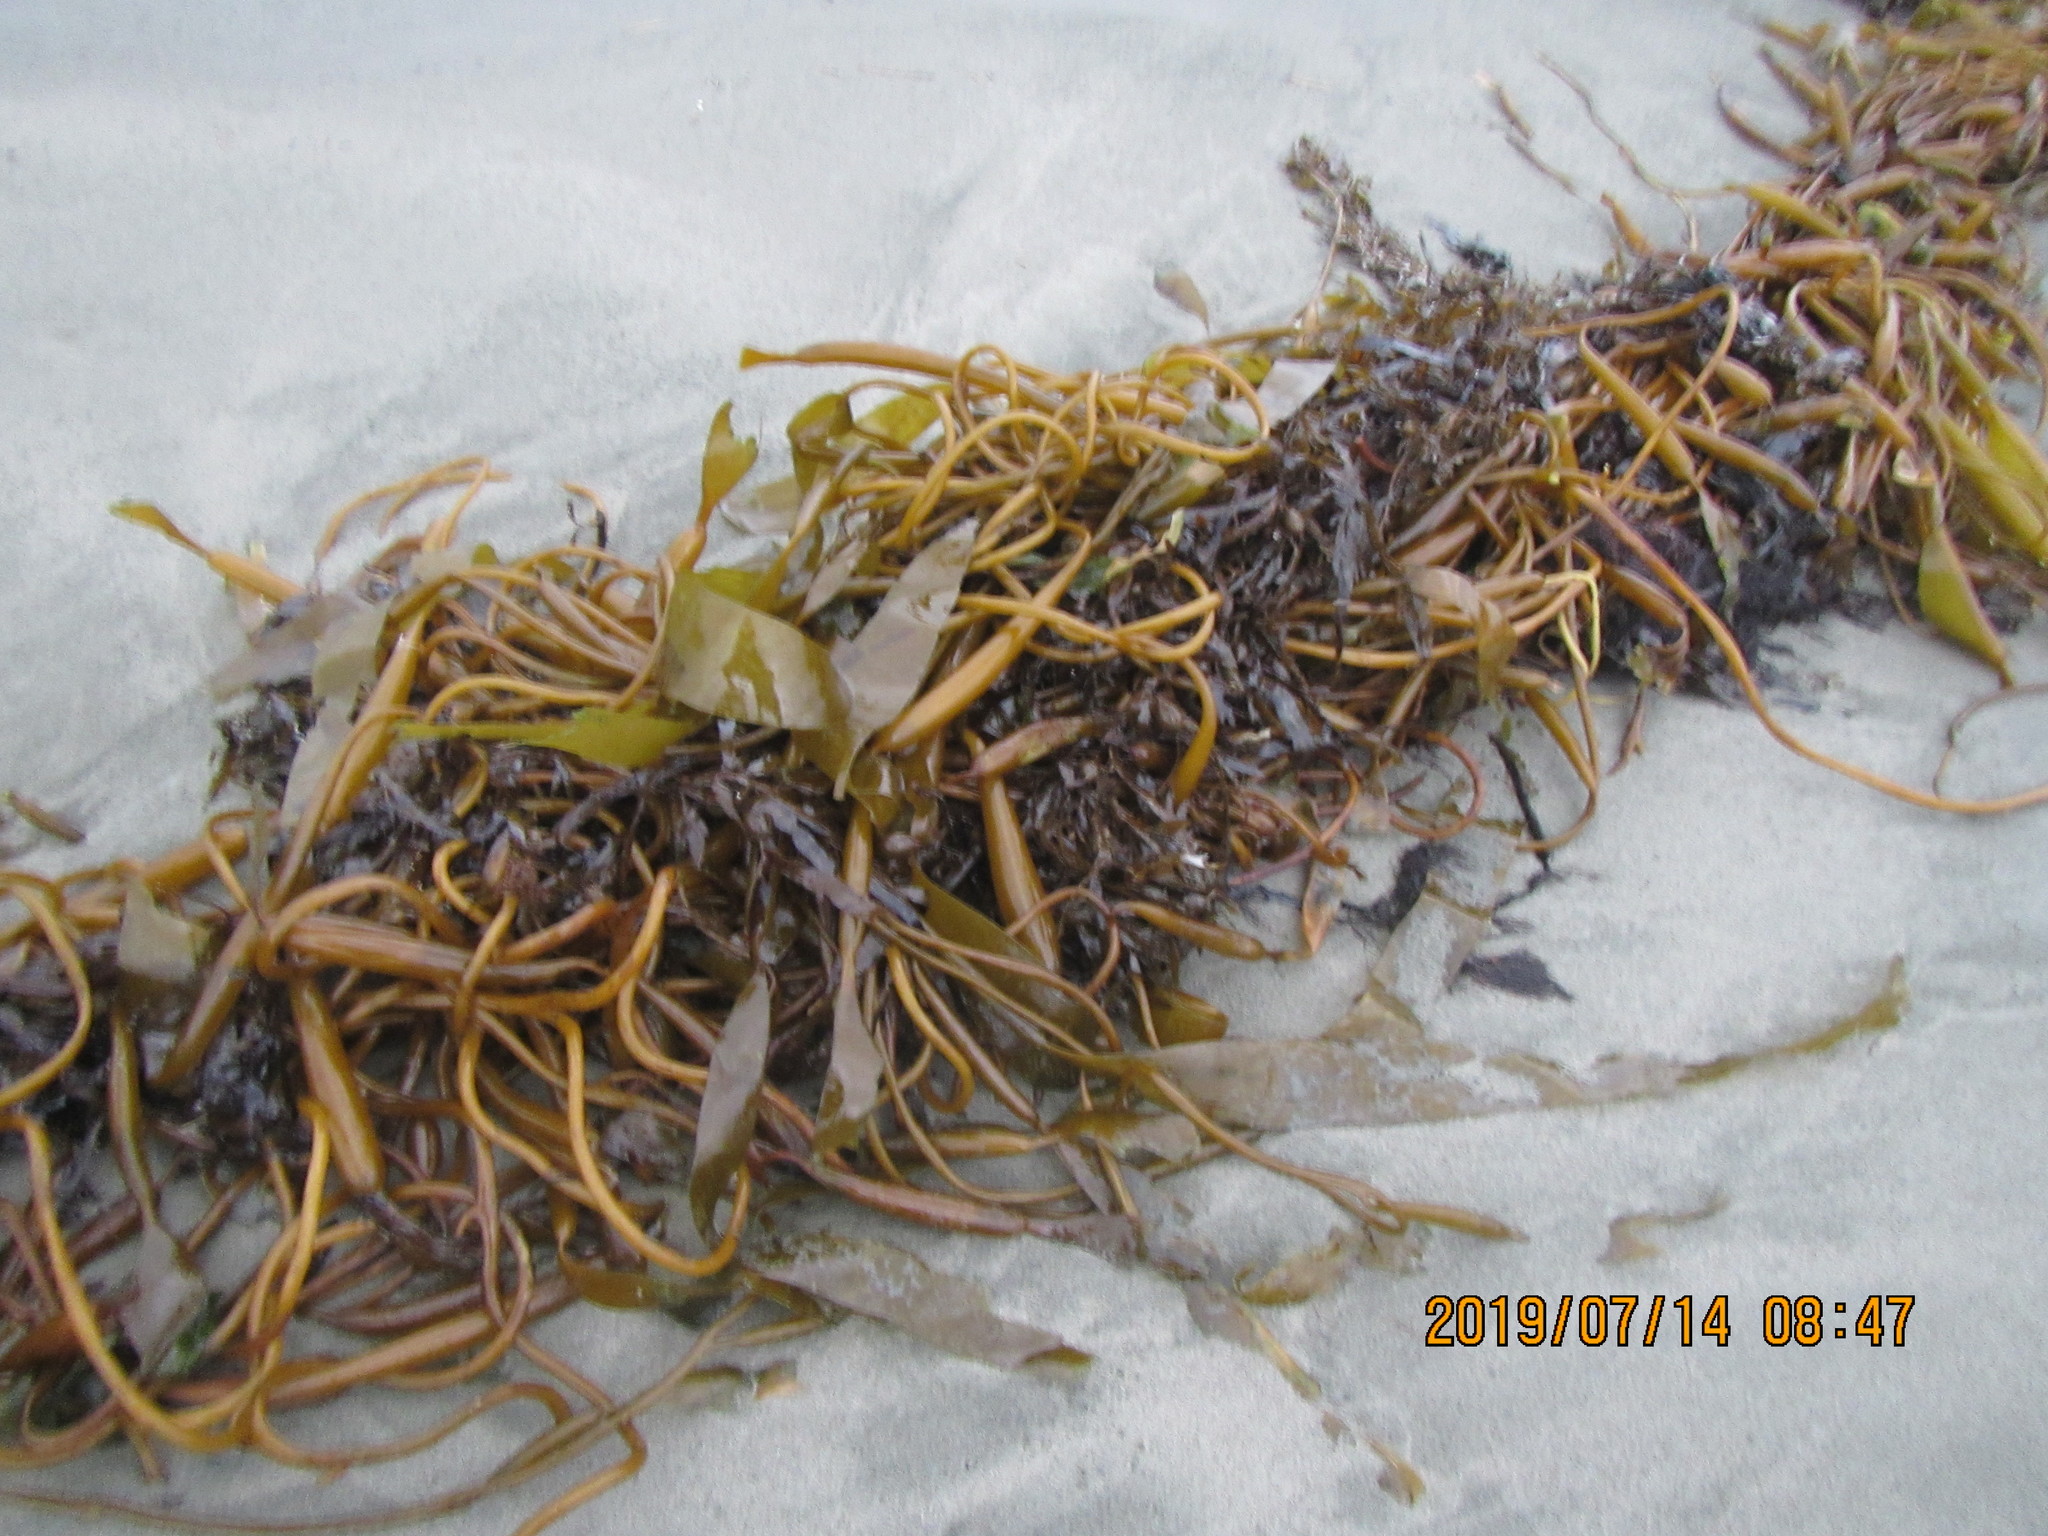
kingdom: Chromista
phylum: Ochrophyta
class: Phaeophyceae
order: Laminariales
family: Laminariaceae
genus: Macrocystis
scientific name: Macrocystis pyrifera
